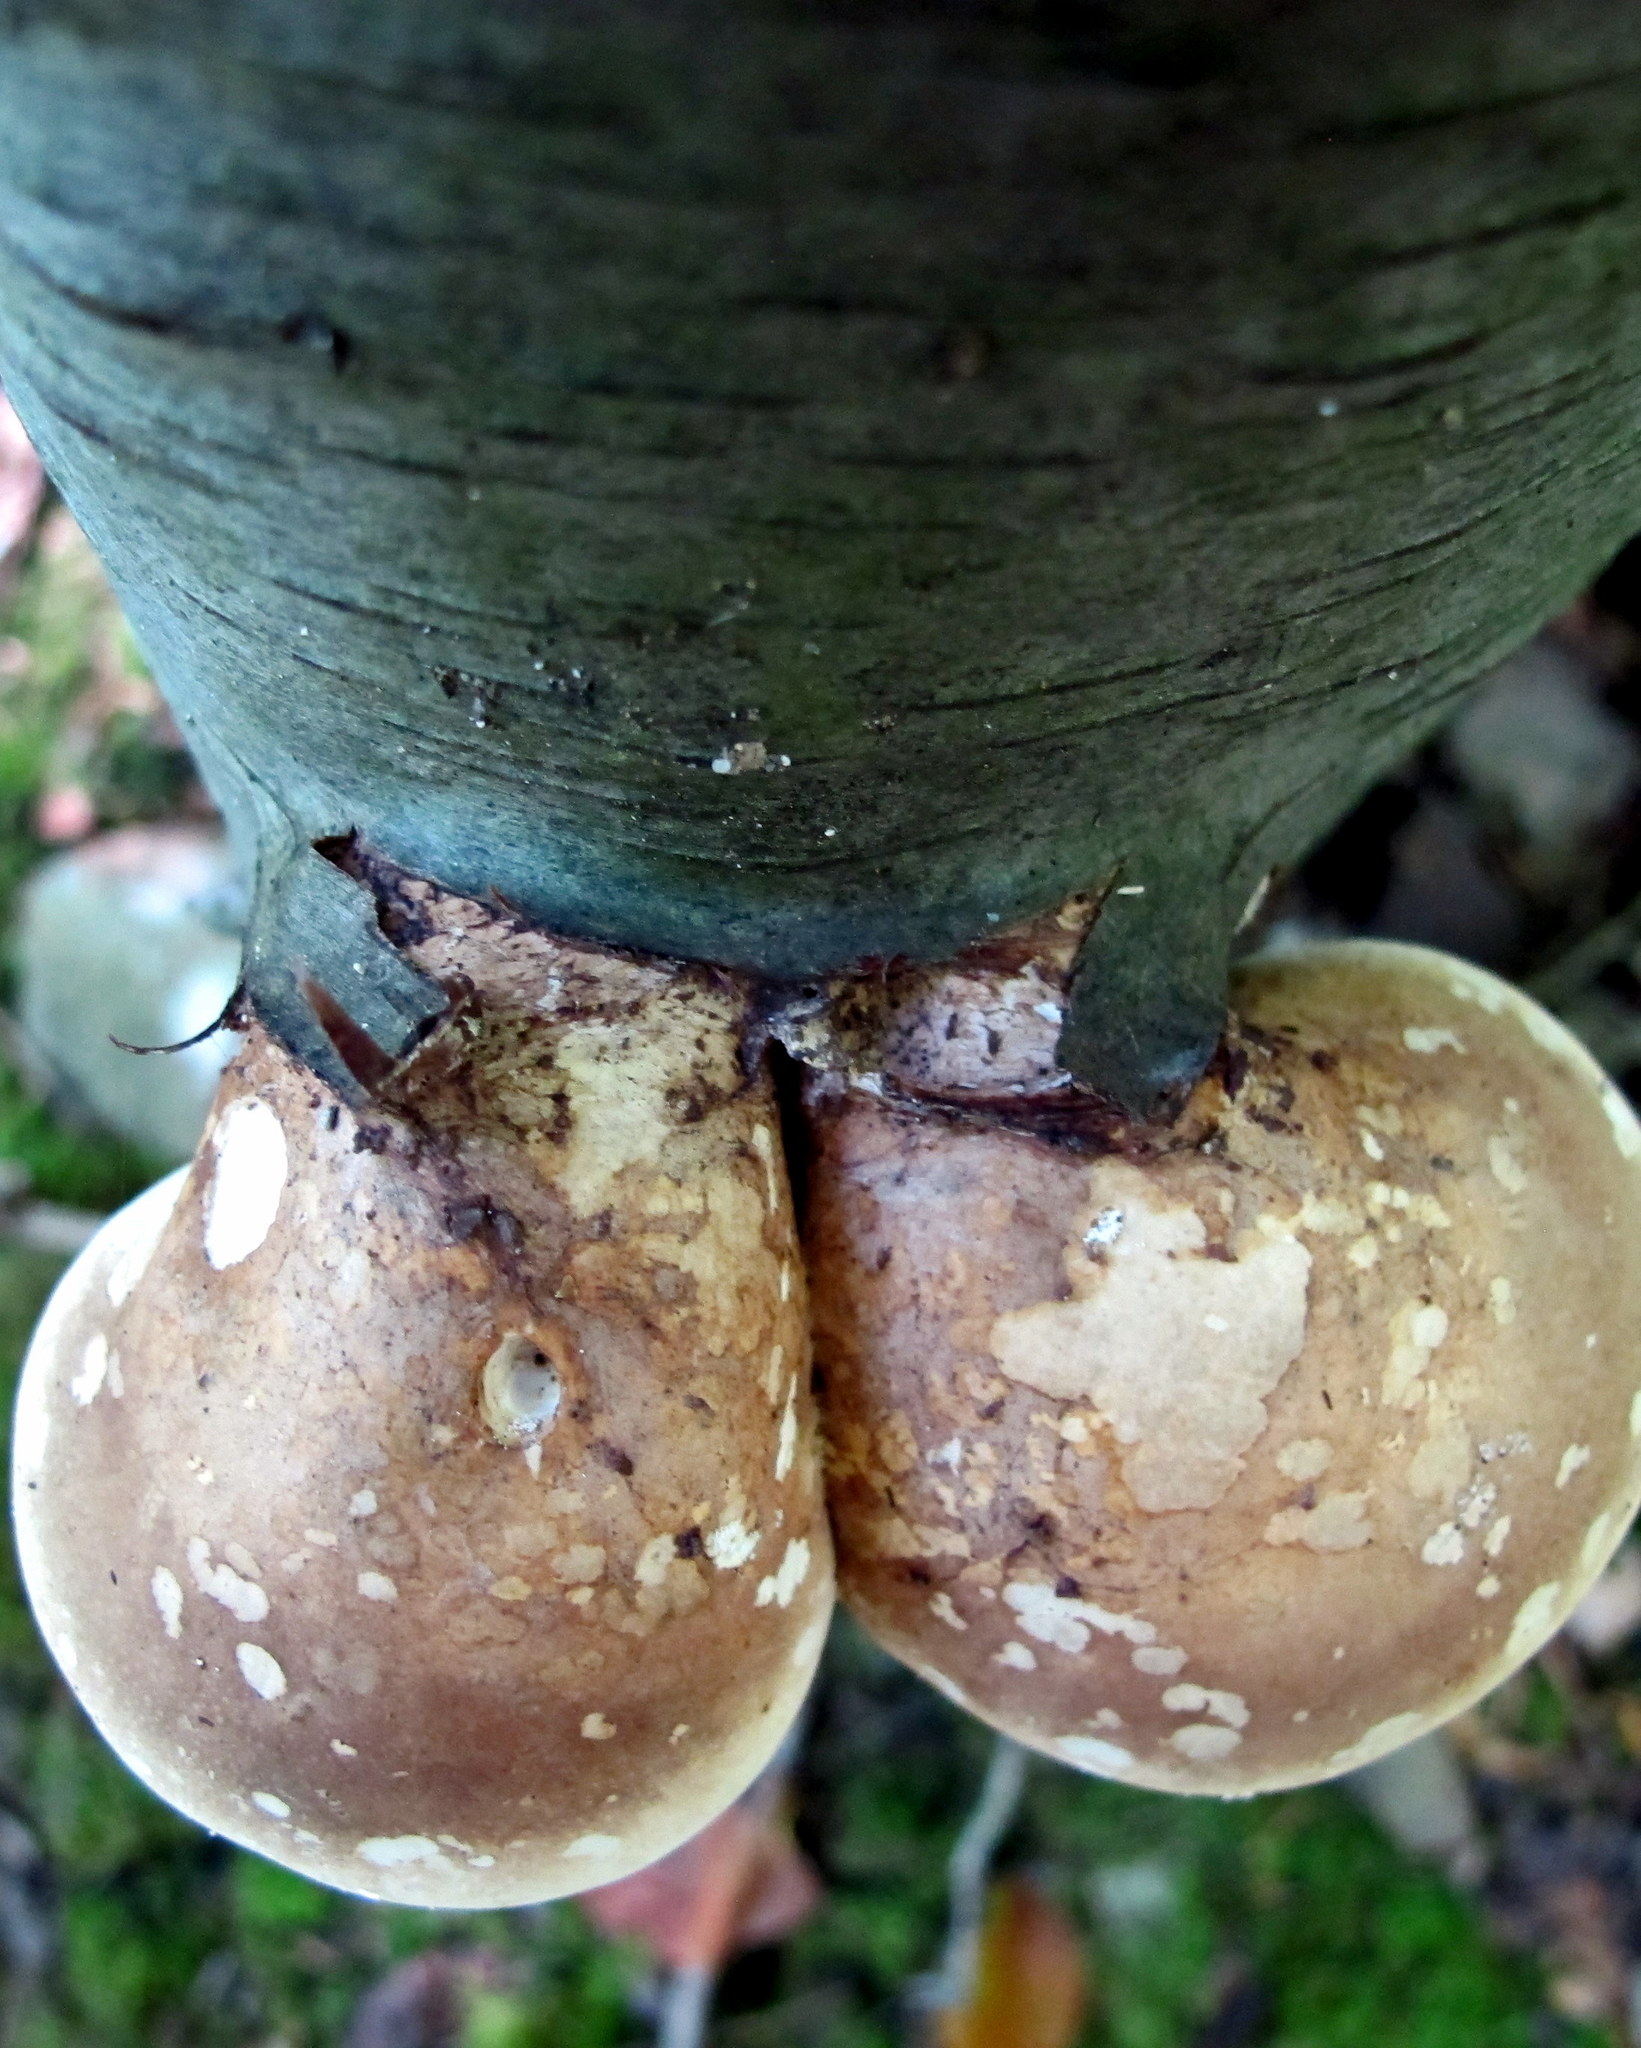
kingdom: Fungi
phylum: Basidiomycota
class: Agaricomycetes
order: Polyporales
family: Fomitopsidaceae
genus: Fomitopsis
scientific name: Fomitopsis betulina
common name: Birch polypore
